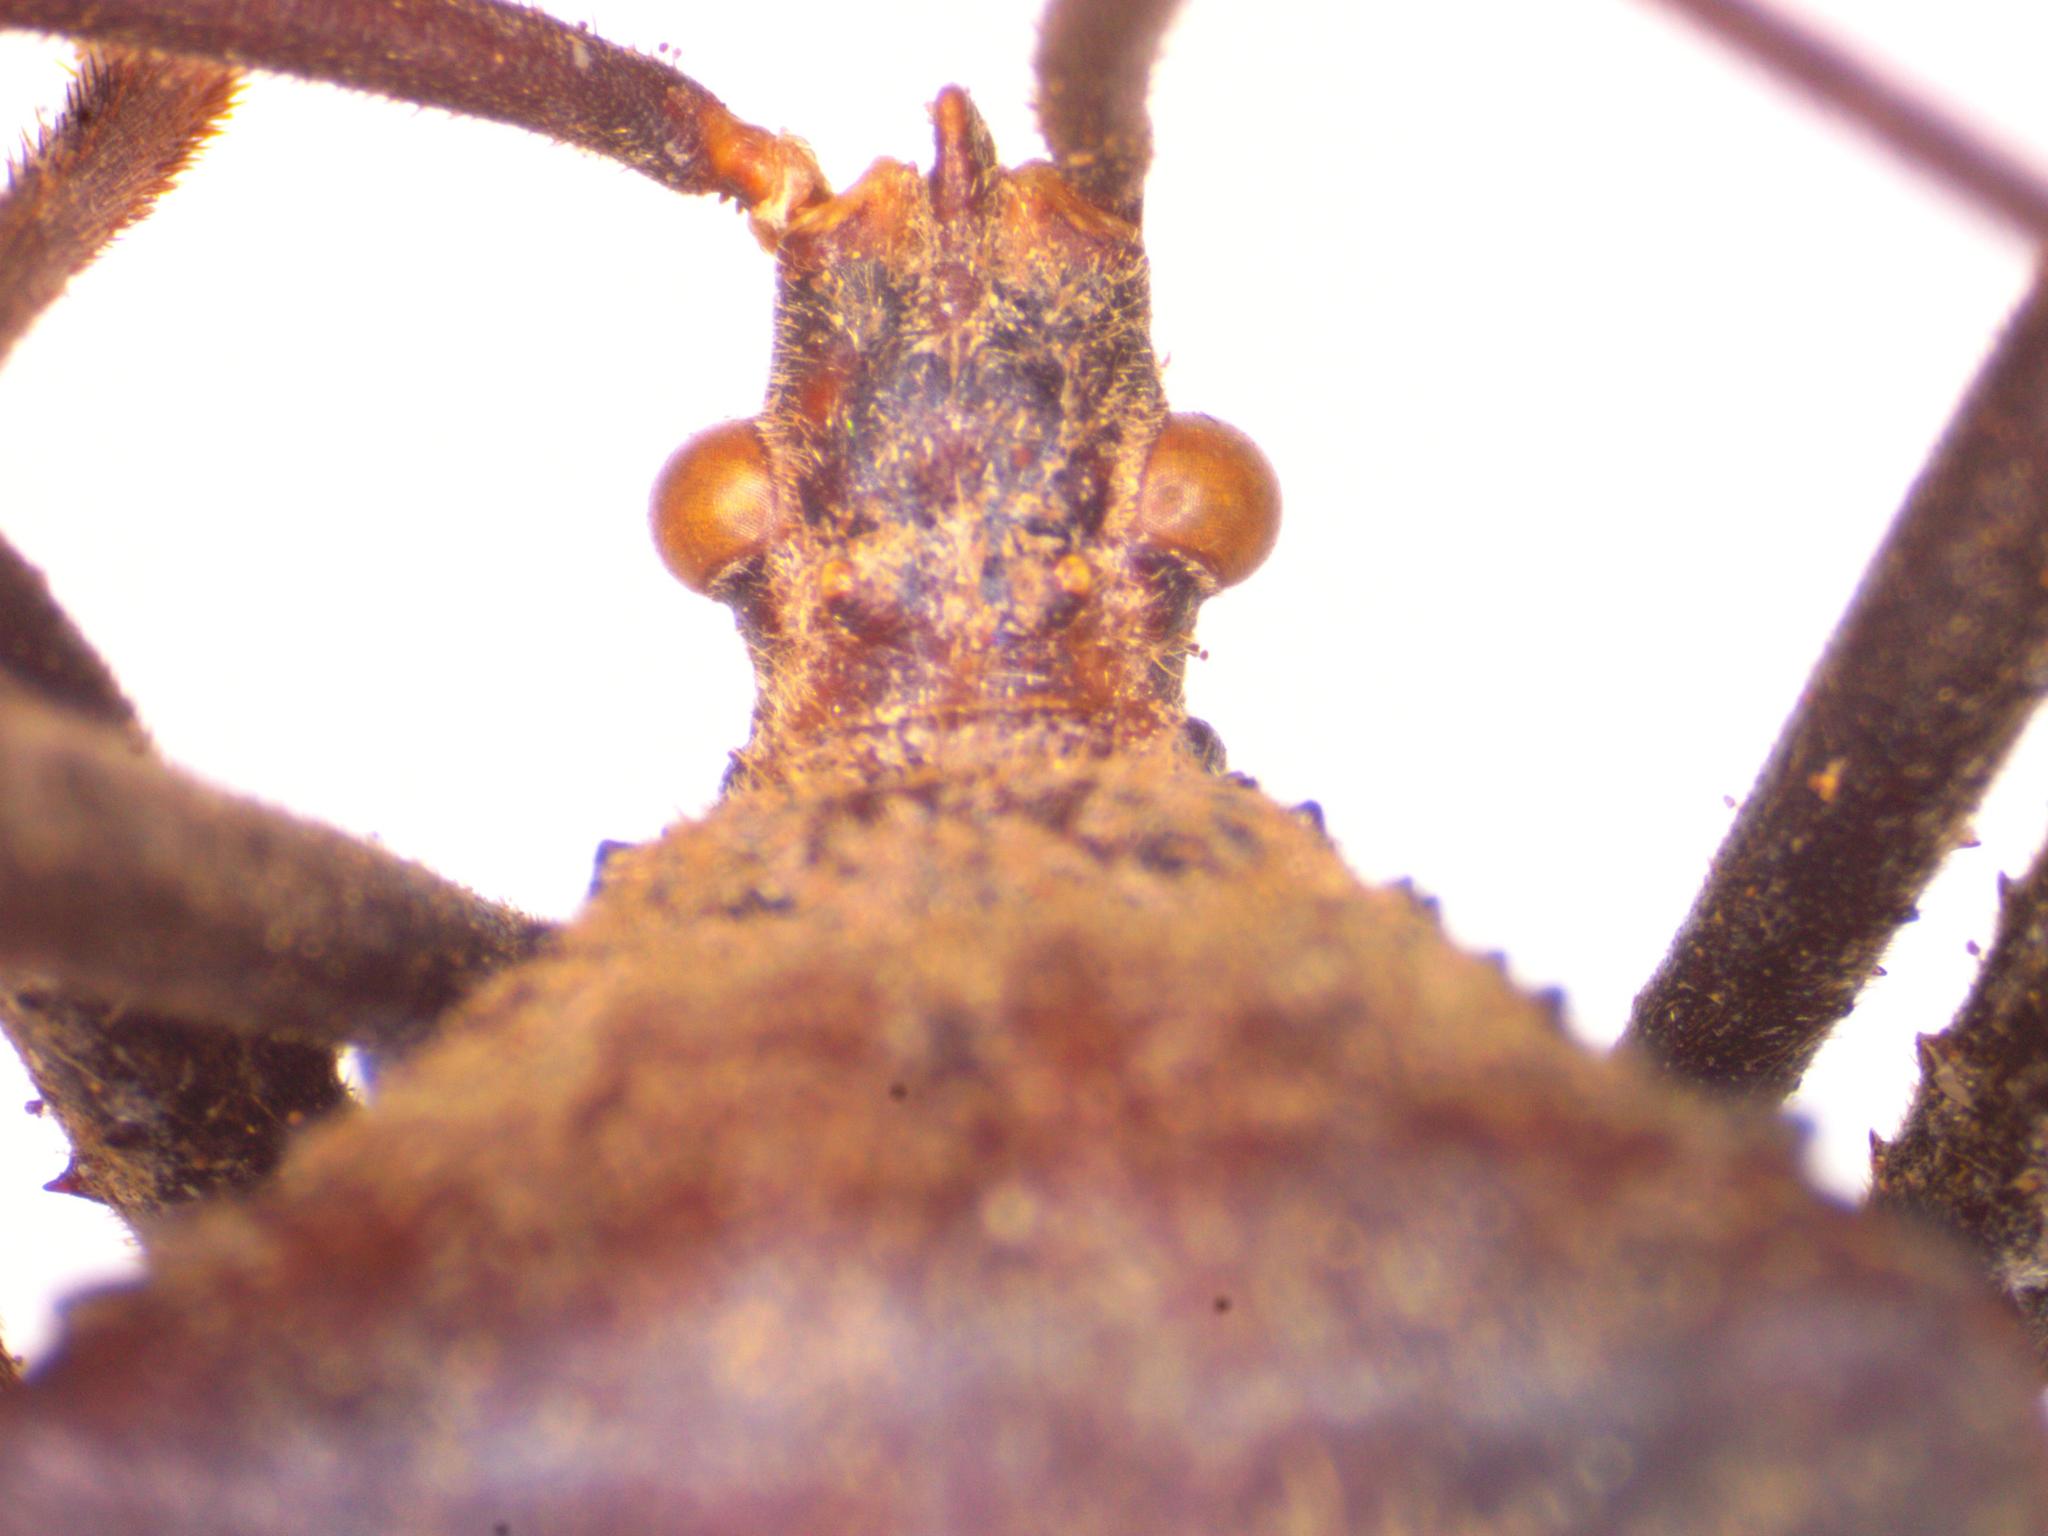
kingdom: Animalia
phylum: Arthropoda
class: Insecta
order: Hemiptera
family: Coreidae
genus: Acanthocephala
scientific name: Acanthocephala alata
